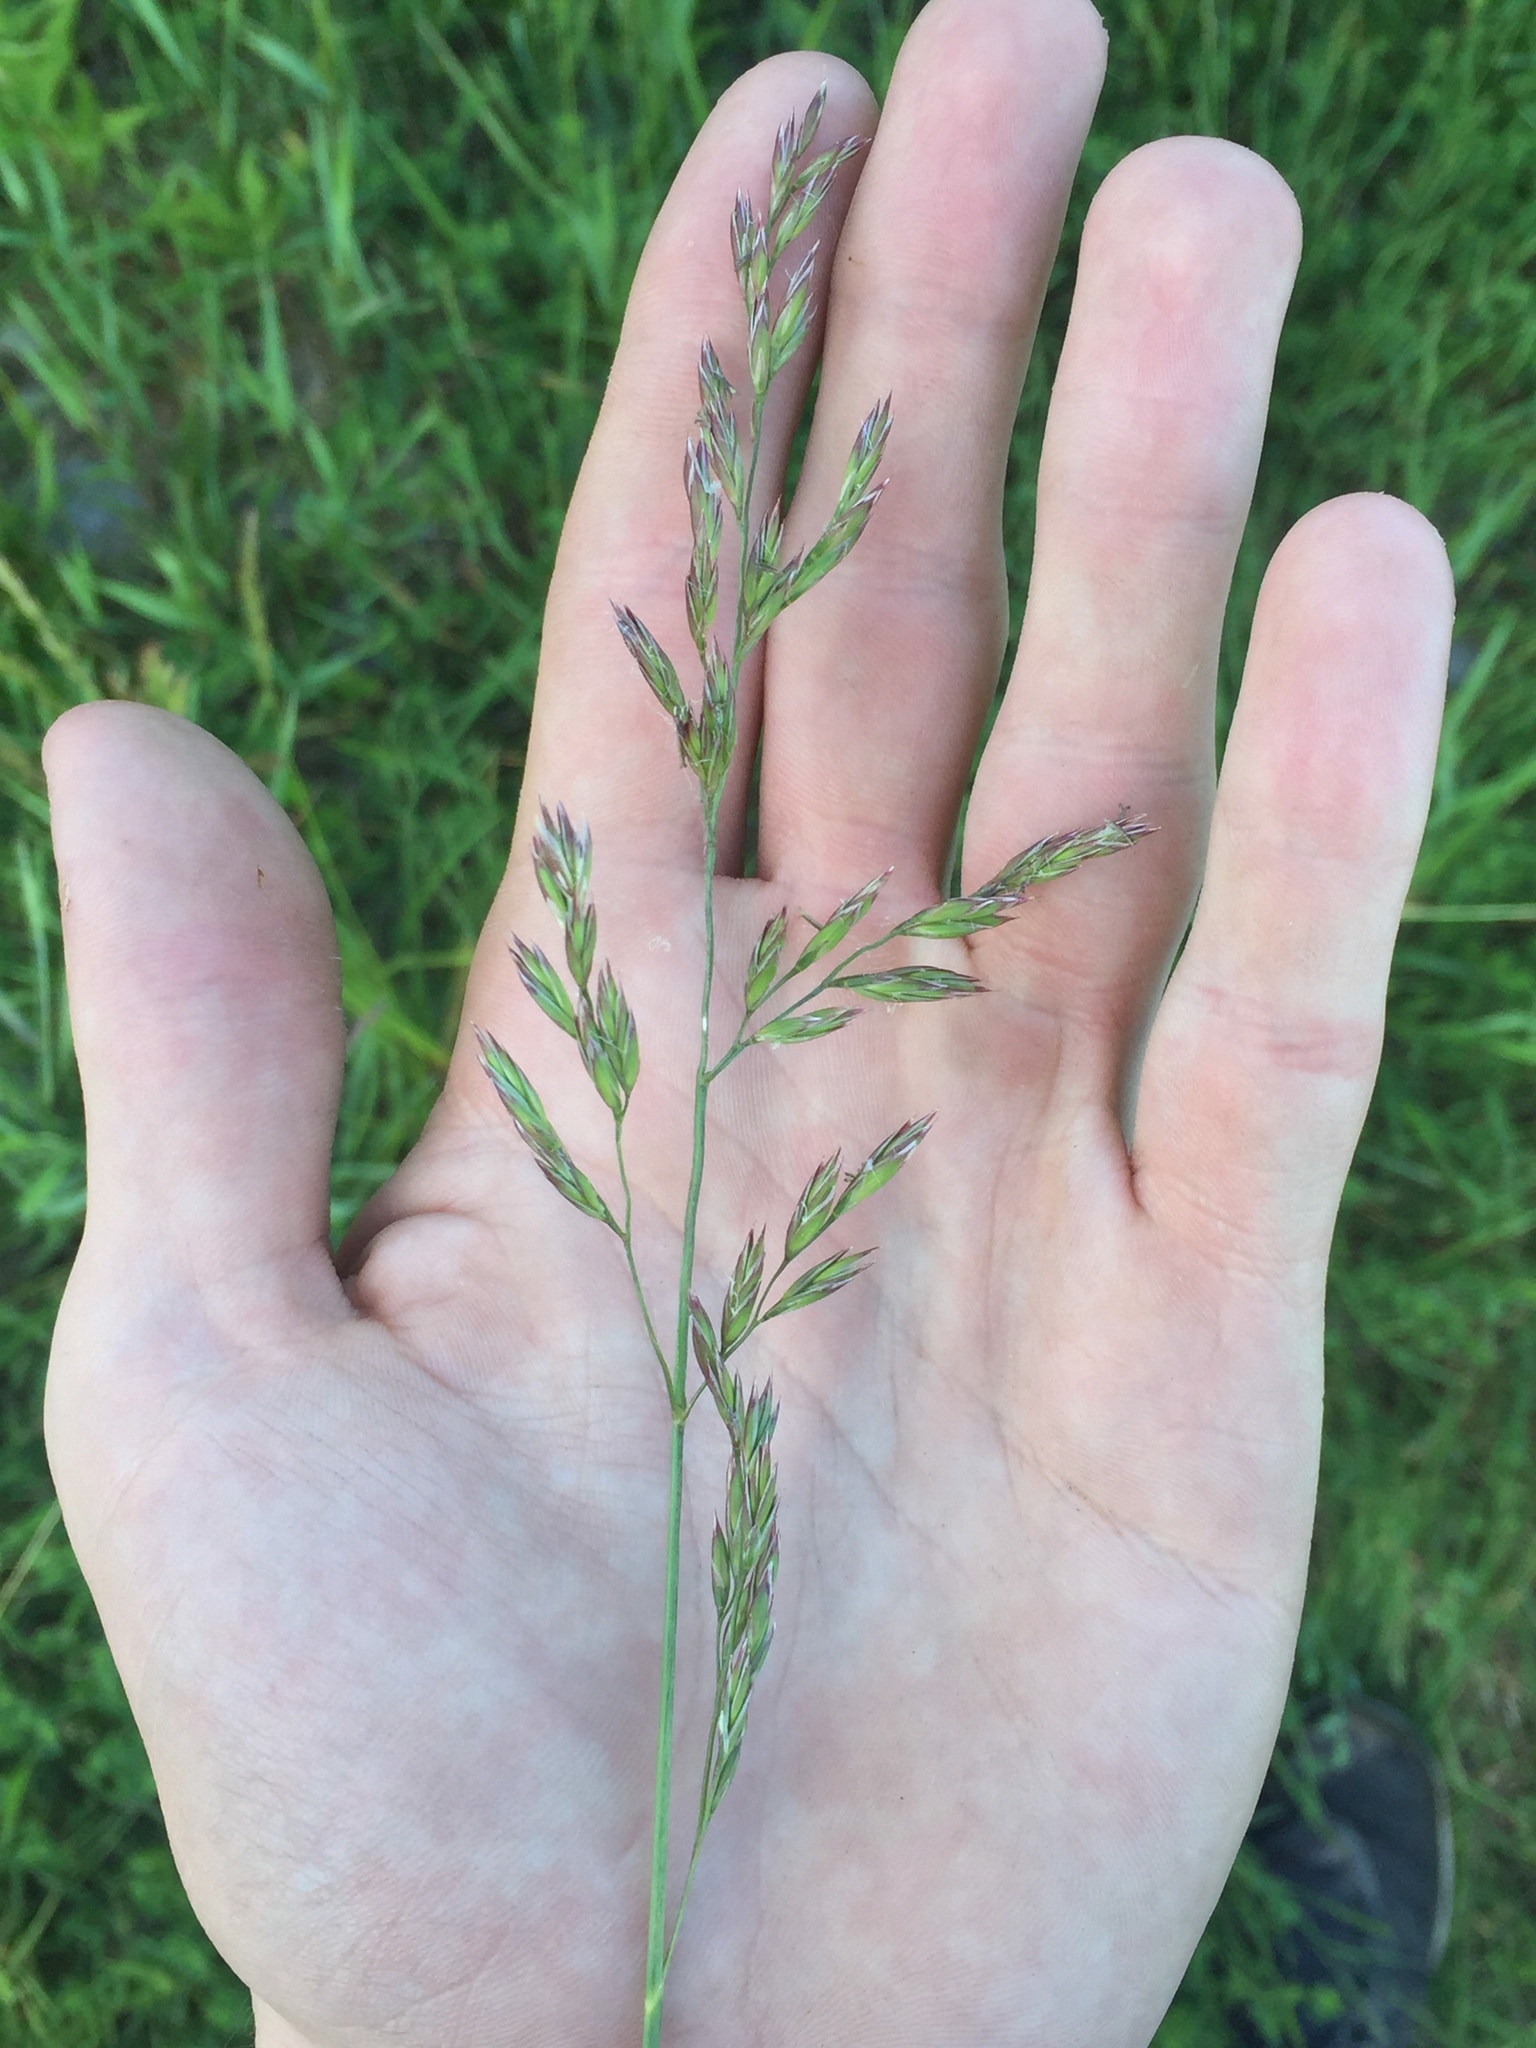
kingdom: Plantae
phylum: Tracheophyta
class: Liliopsida
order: Poales
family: Poaceae
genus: Lolium
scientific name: Lolium arundinaceum
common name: Reed fescue
